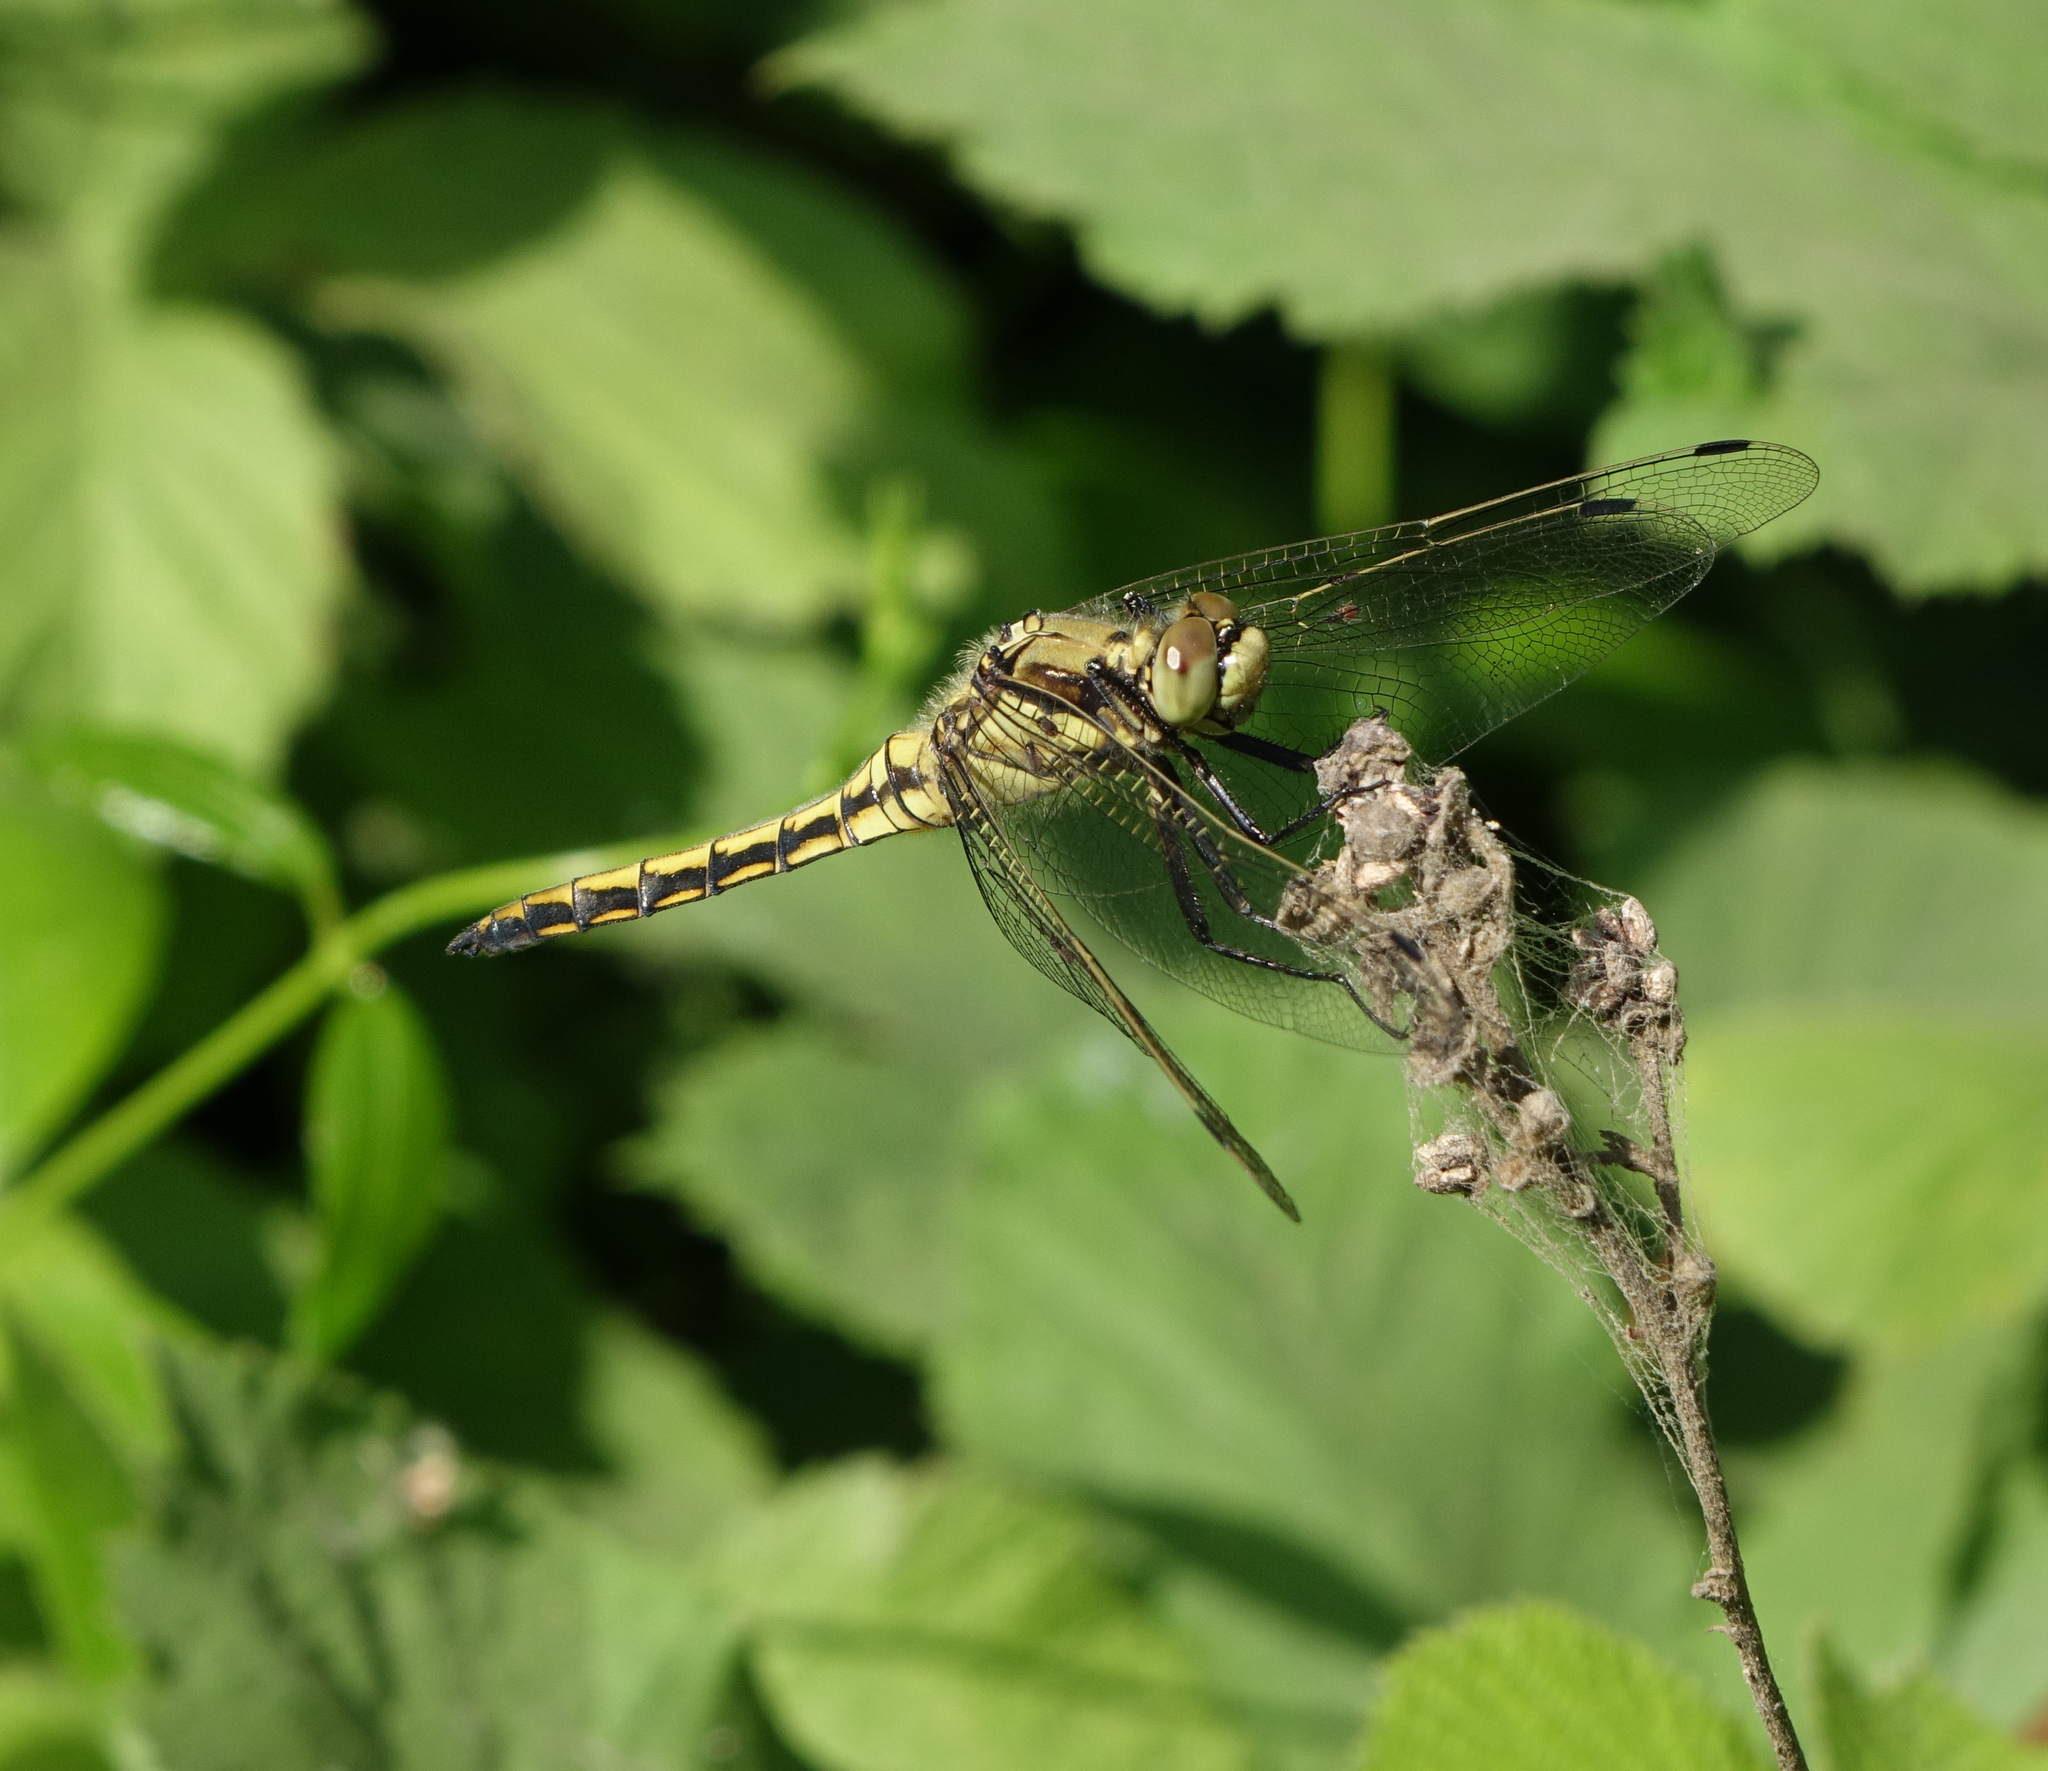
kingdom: Animalia
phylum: Arthropoda
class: Insecta
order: Odonata
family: Libellulidae
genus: Orthetrum
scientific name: Orthetrum cancellatum
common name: Black-tailed skimmer
